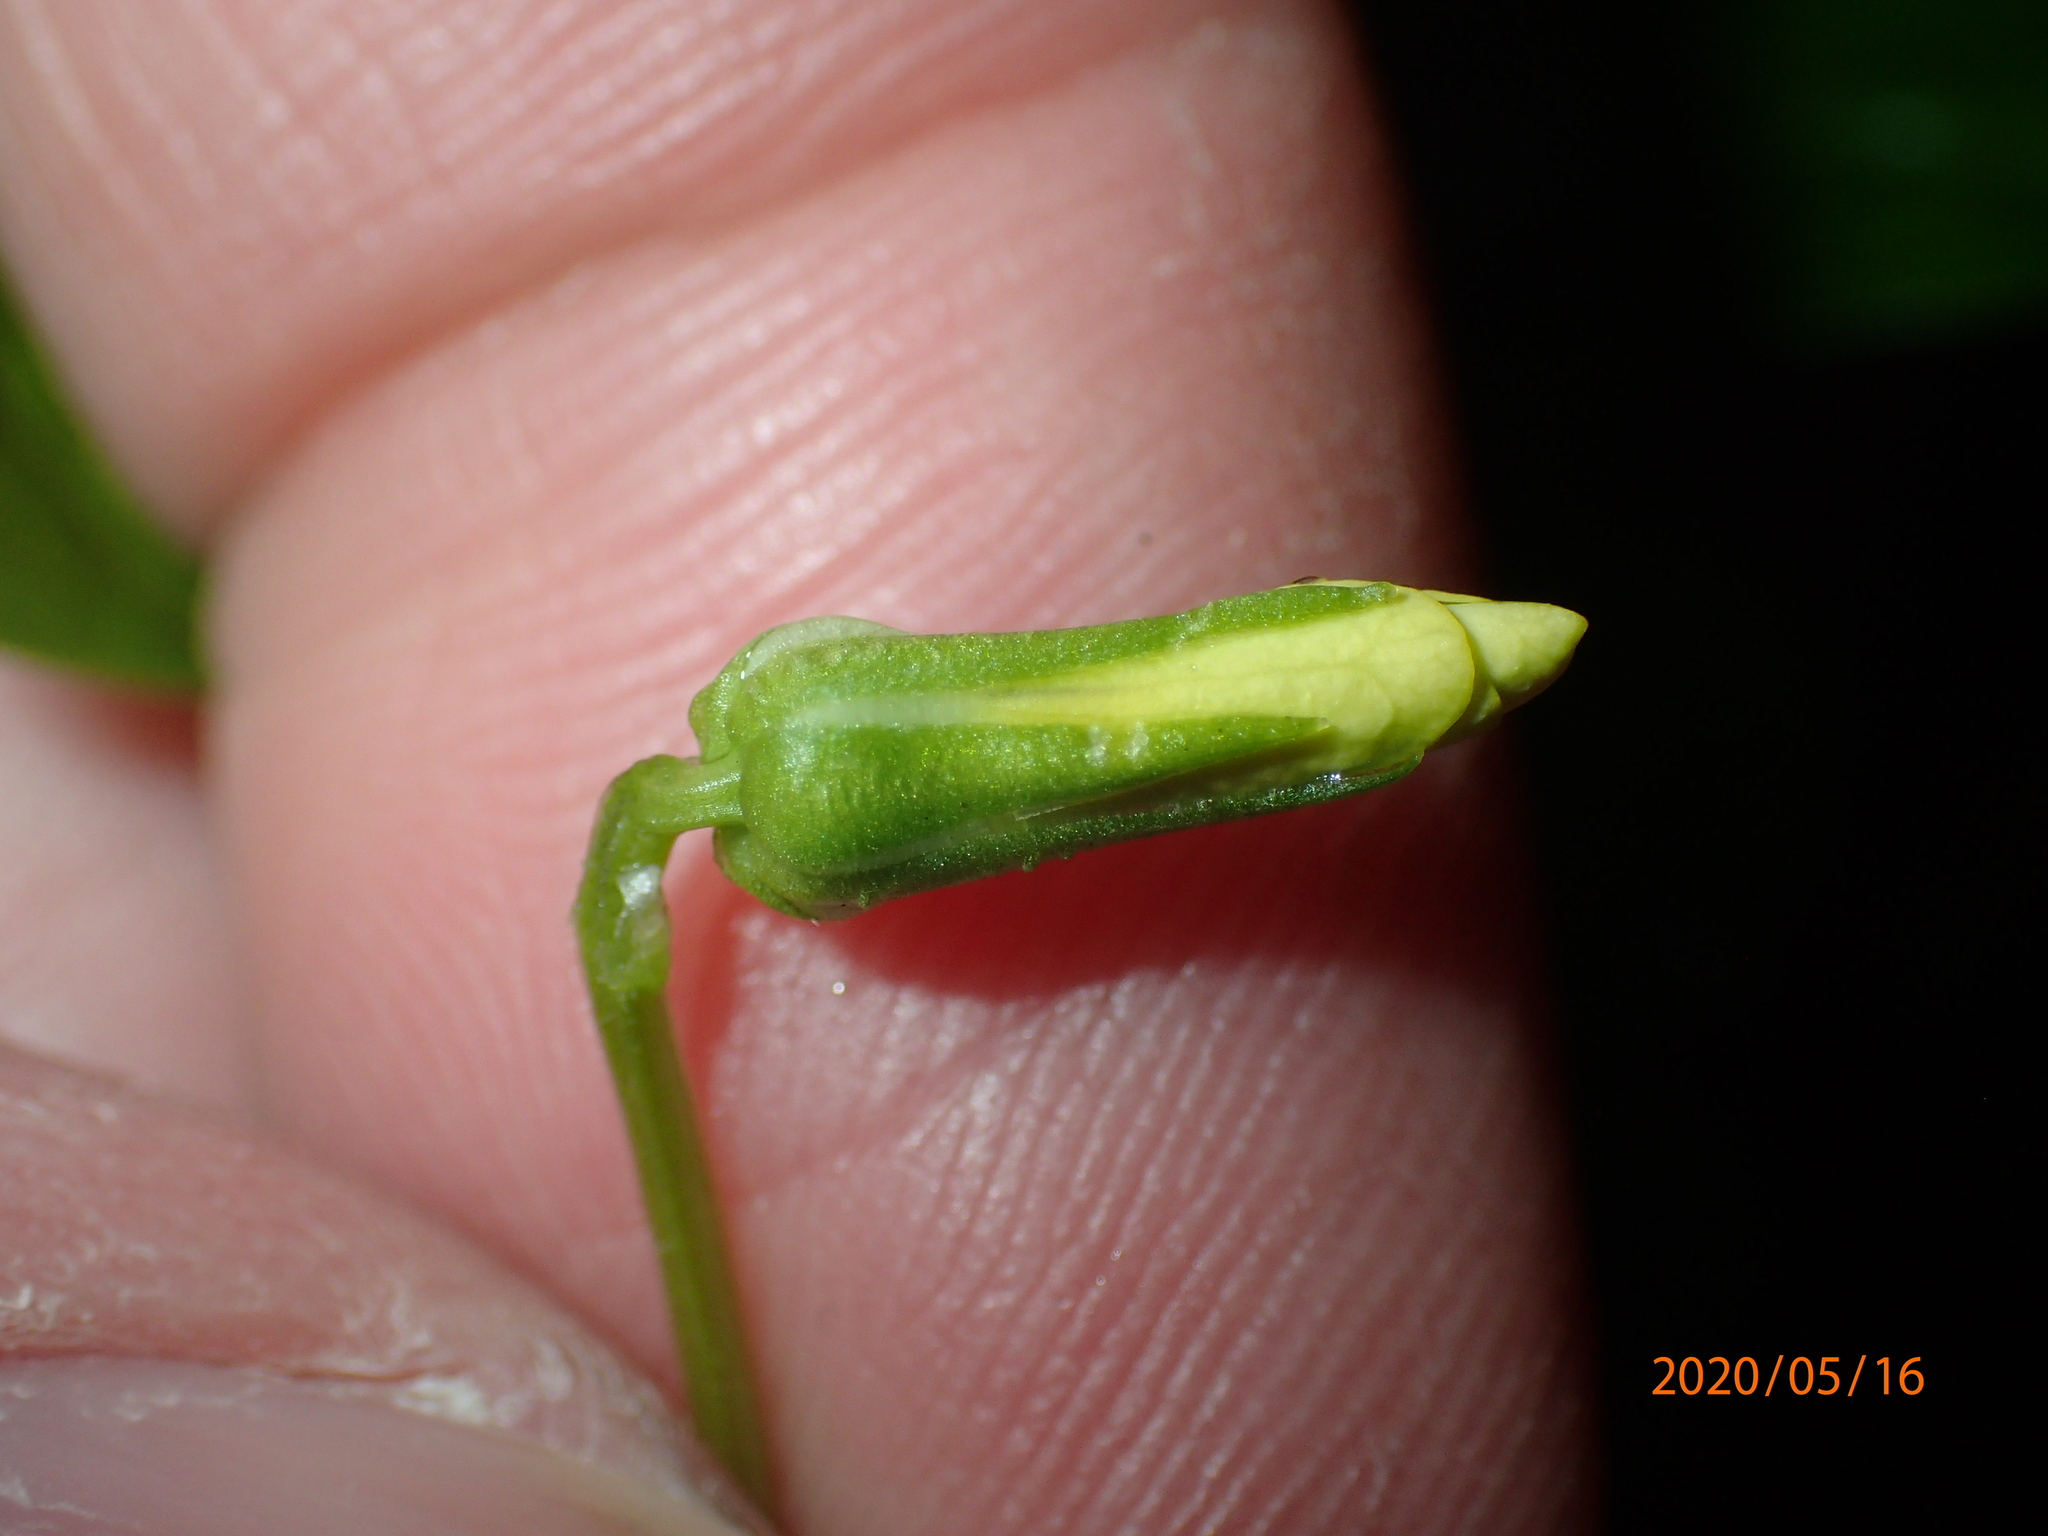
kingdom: Plantae
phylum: Tracheophyta
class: Magnoliopsida
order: Malpighiales
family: Violaceae
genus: Viola
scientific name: Viola eriocarpa
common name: Smooth yellow violet
